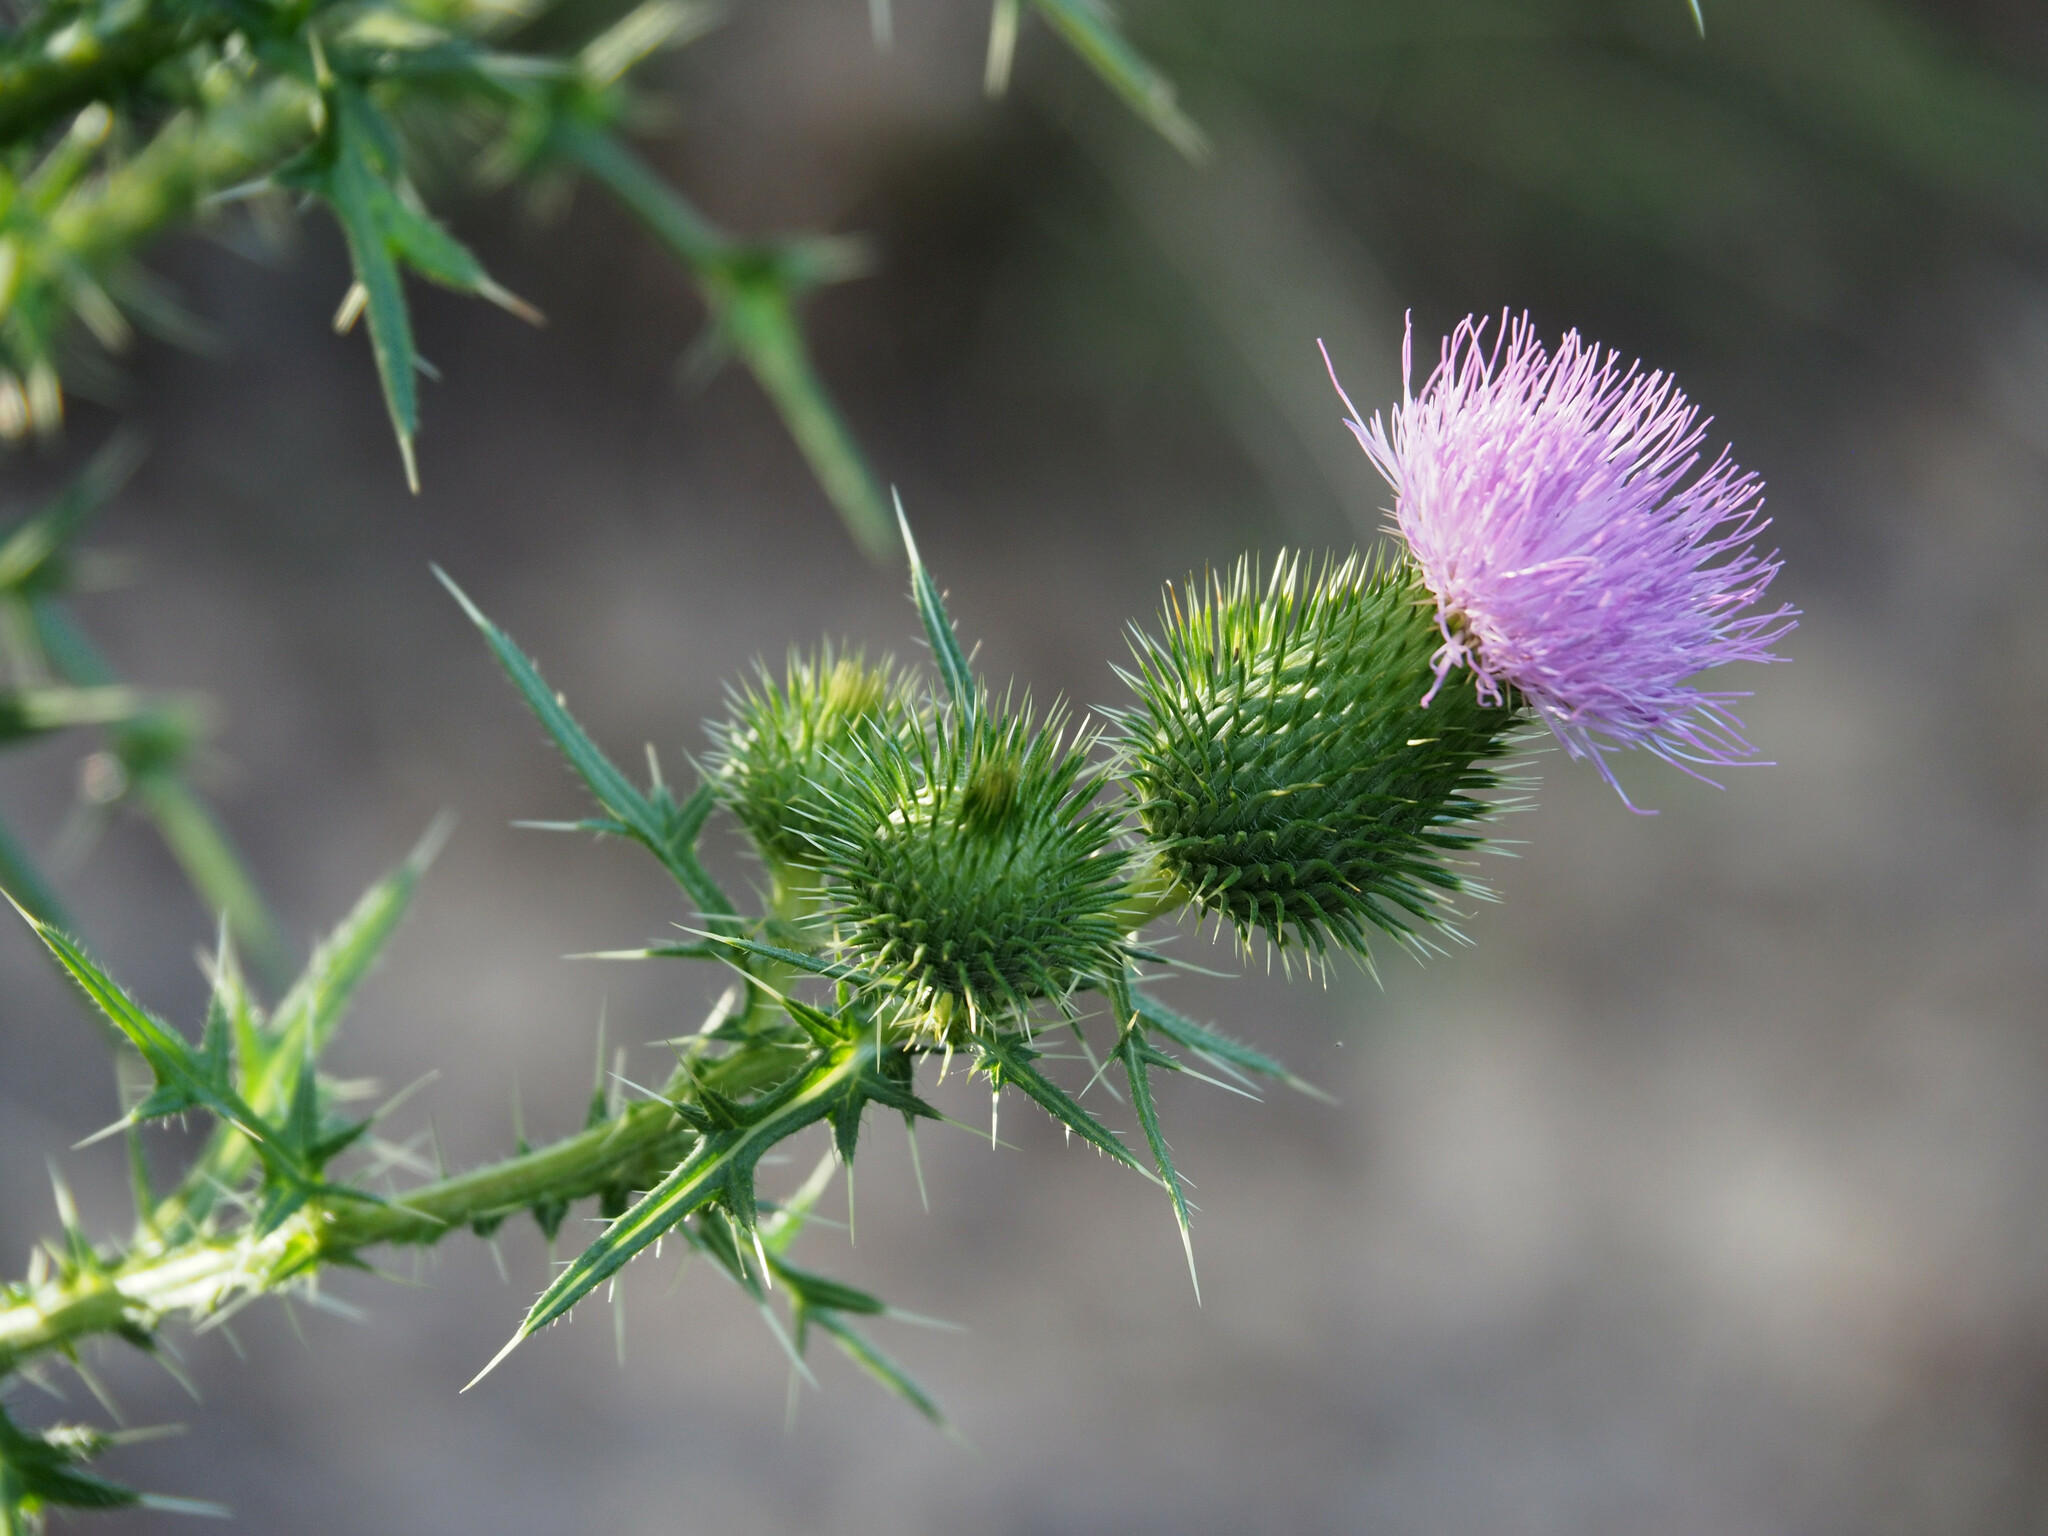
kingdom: Plantae
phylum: Tracheophyta
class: Magnoliopsida
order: Asterales
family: Asteraceae
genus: Cirsium
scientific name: Cirsium vulgare
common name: Bull thistle
